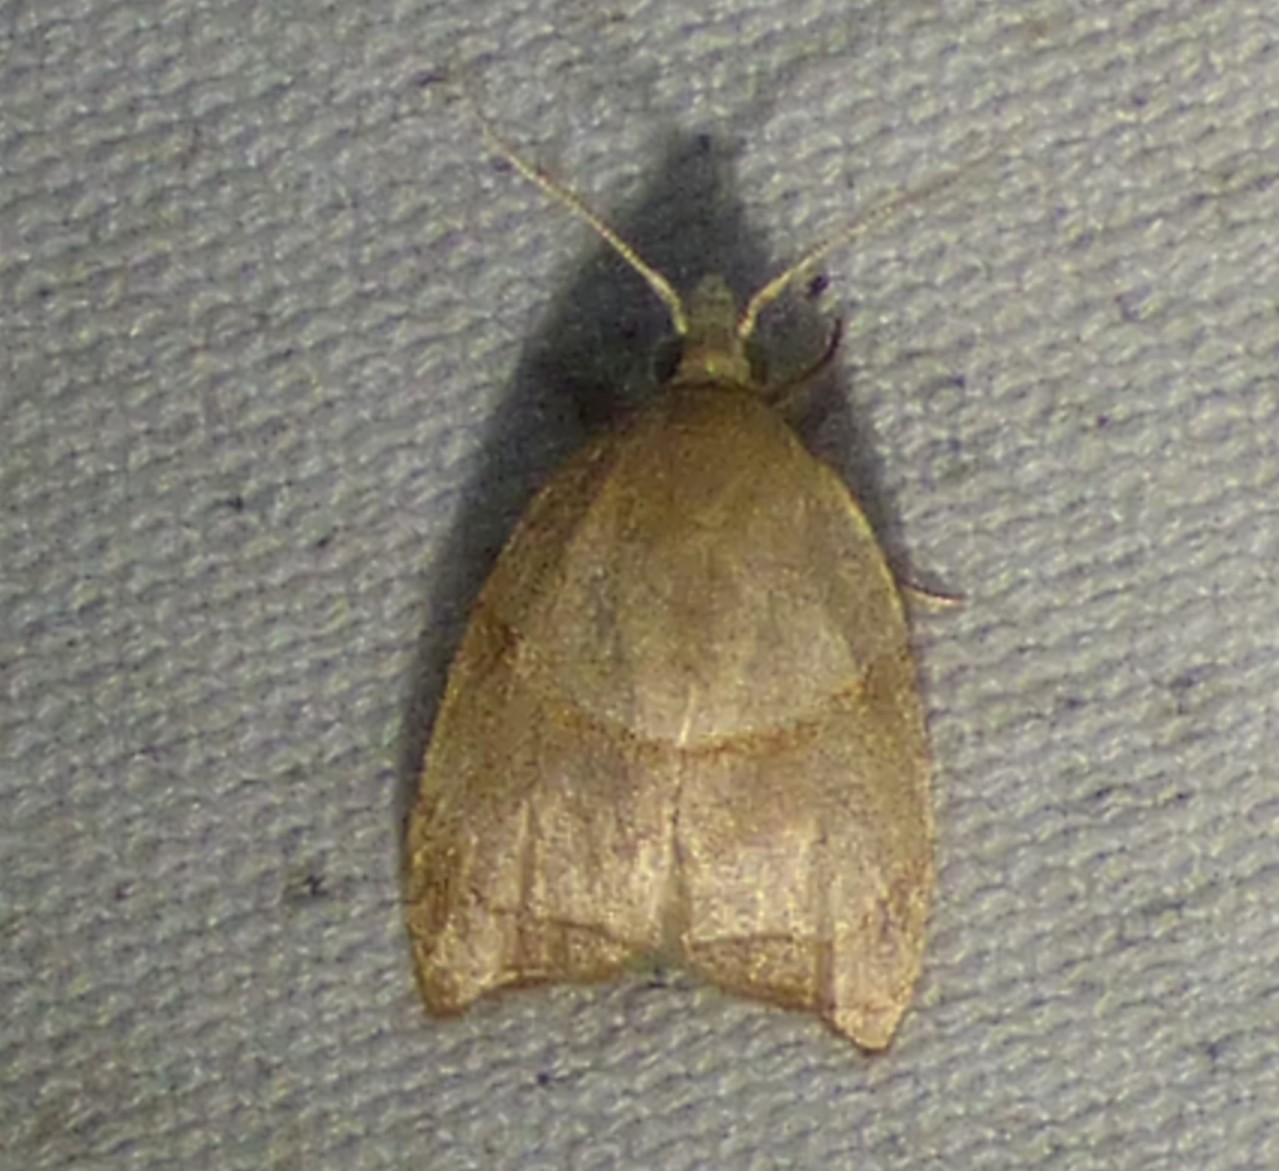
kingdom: Animalia
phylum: Arthropoda
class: Insecta
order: Lepidoptera
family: Tortricidae
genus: Coelostathma
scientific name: Coelostathma discopunctana
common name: Batman moth
